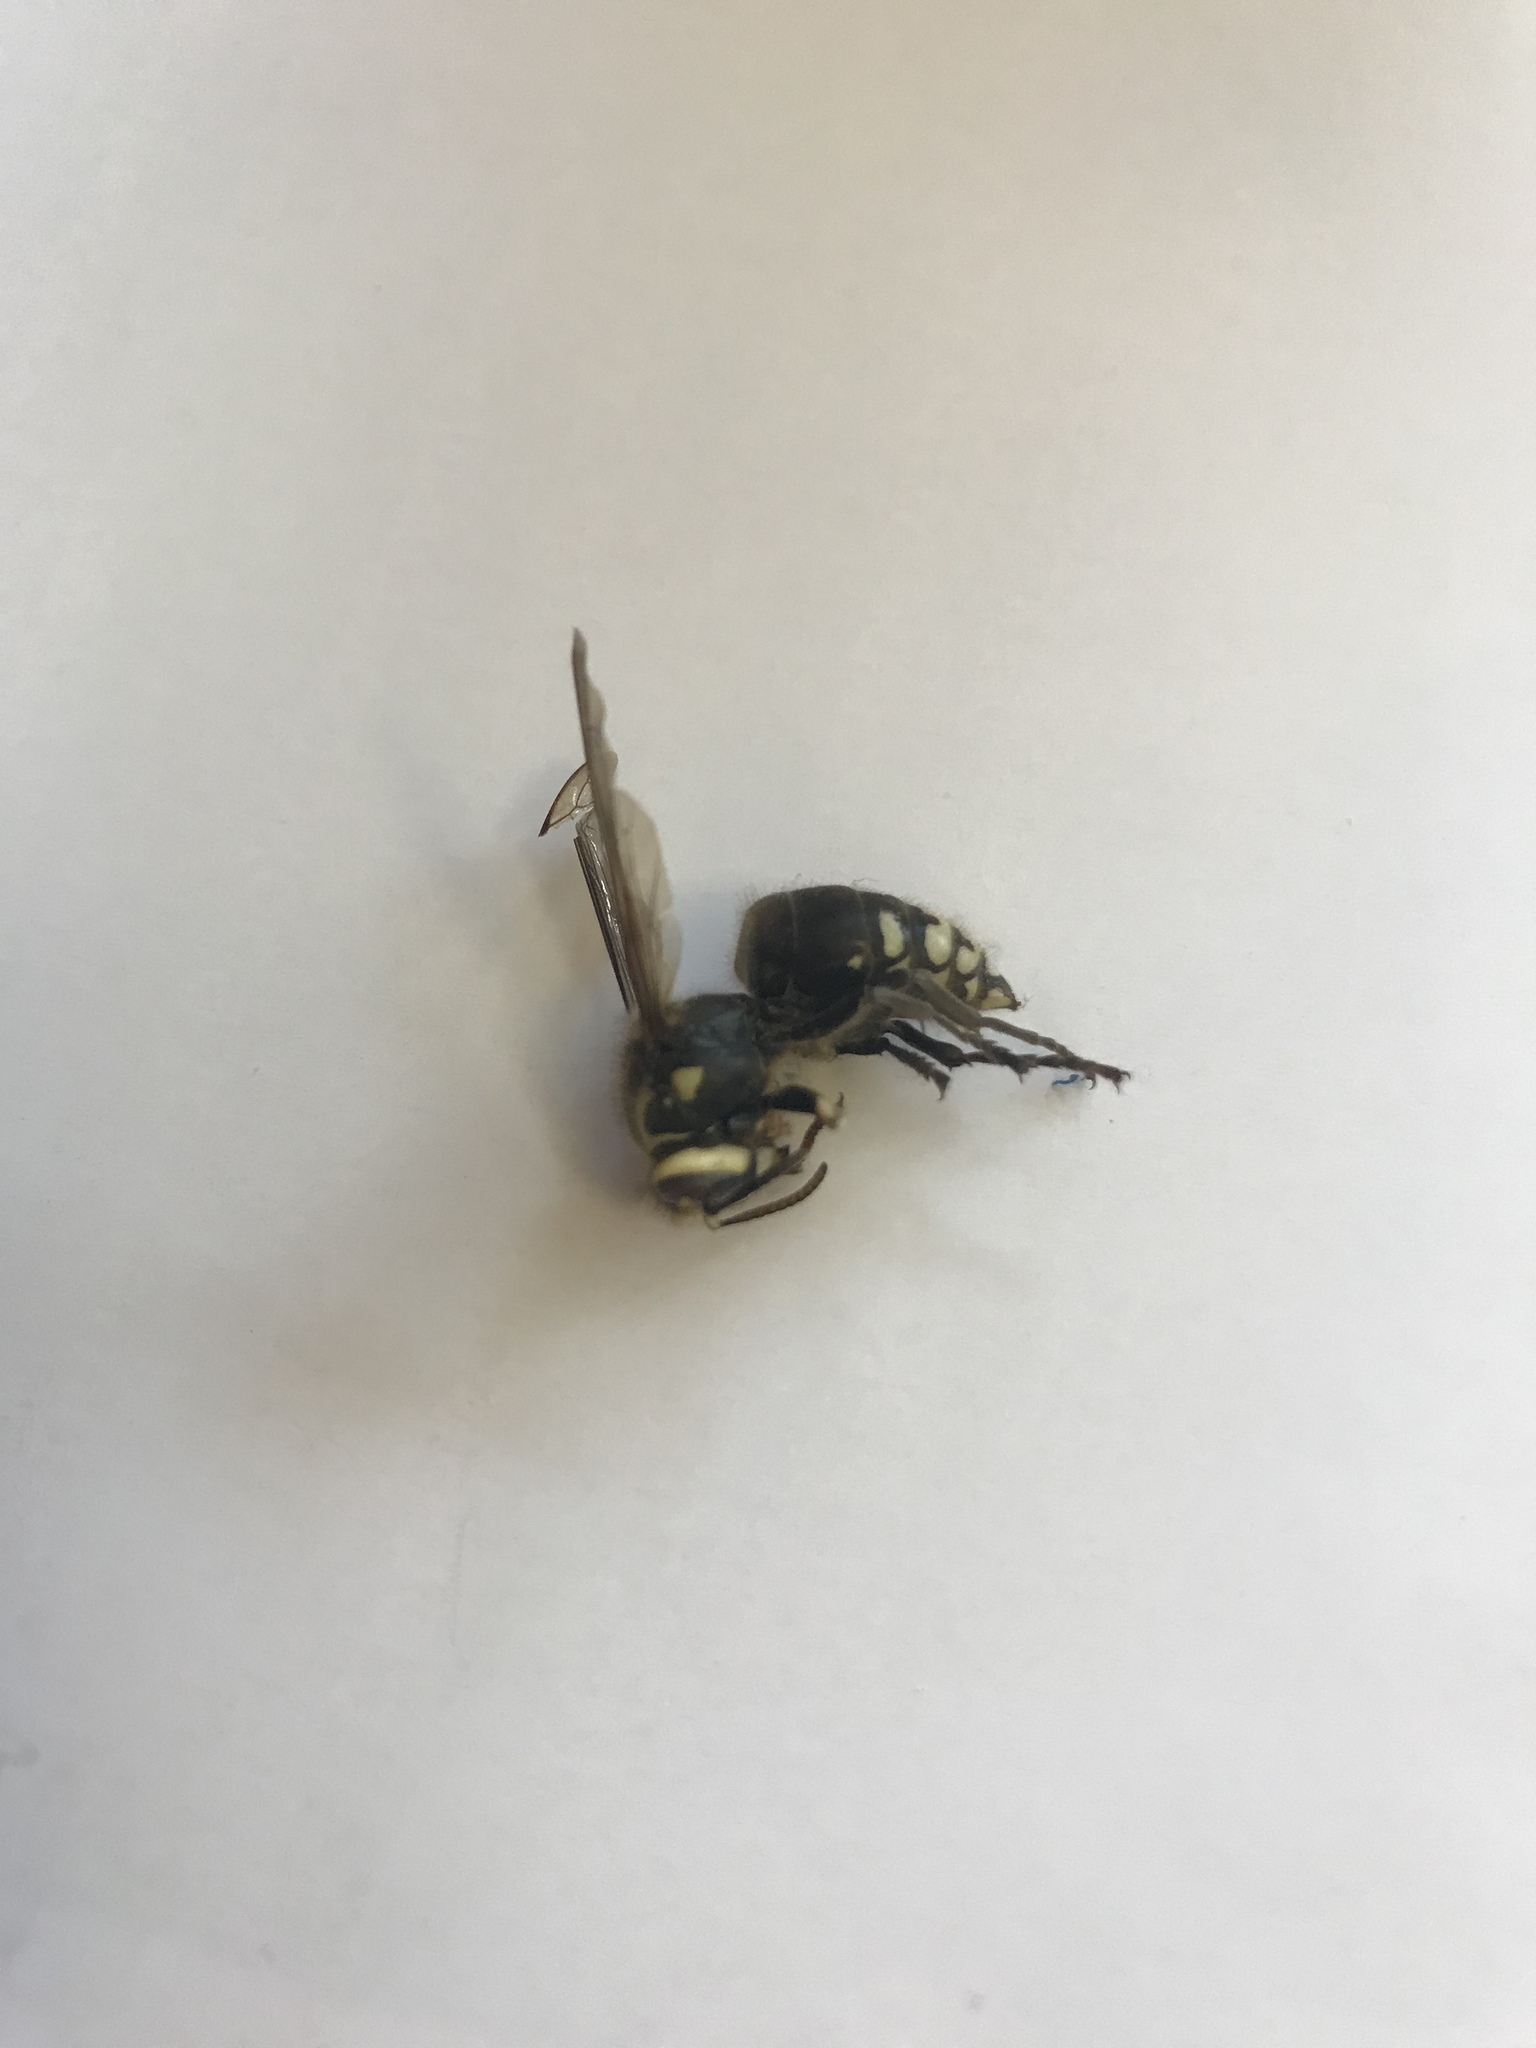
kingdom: Animalia
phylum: Arthropoda
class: Insecta
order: Hymenoptera
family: Vespidae
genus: Dolichovespula
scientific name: Dolichovespula maculata
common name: Bald-faced hornet
